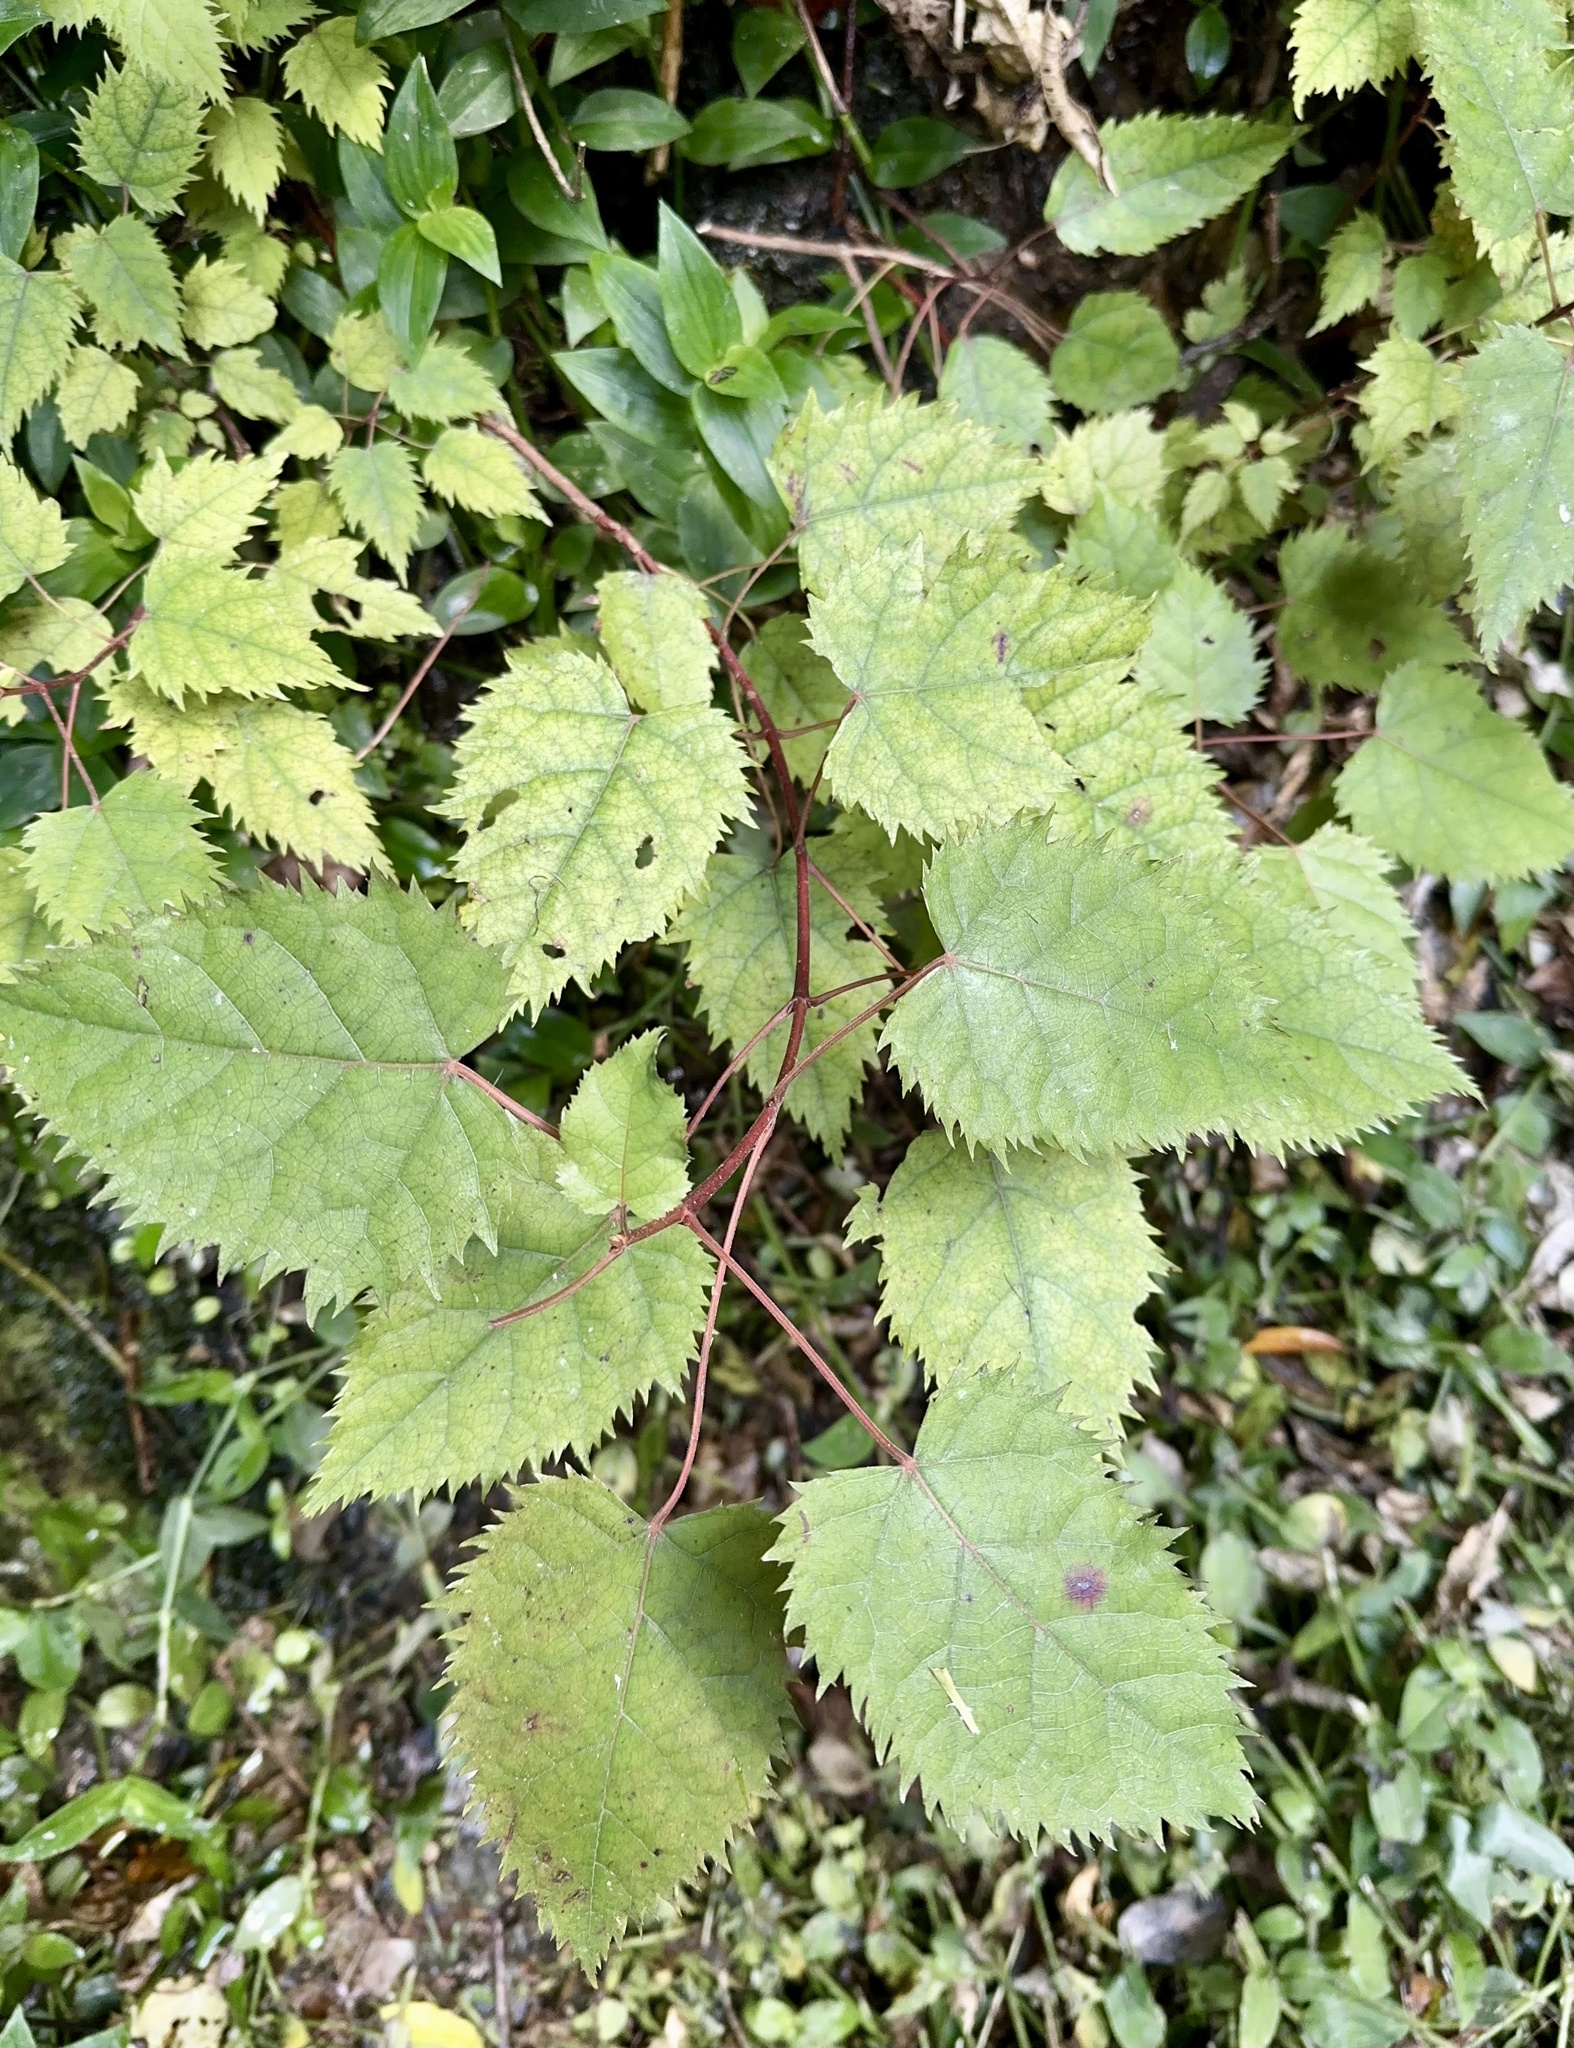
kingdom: Plantae
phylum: Tracheophyta
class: Magnoliopsida
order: Oxalidales
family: Elaeocarpaceae
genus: Aristotelia
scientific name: Aristotelia serrata
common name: New zealand wineberry
